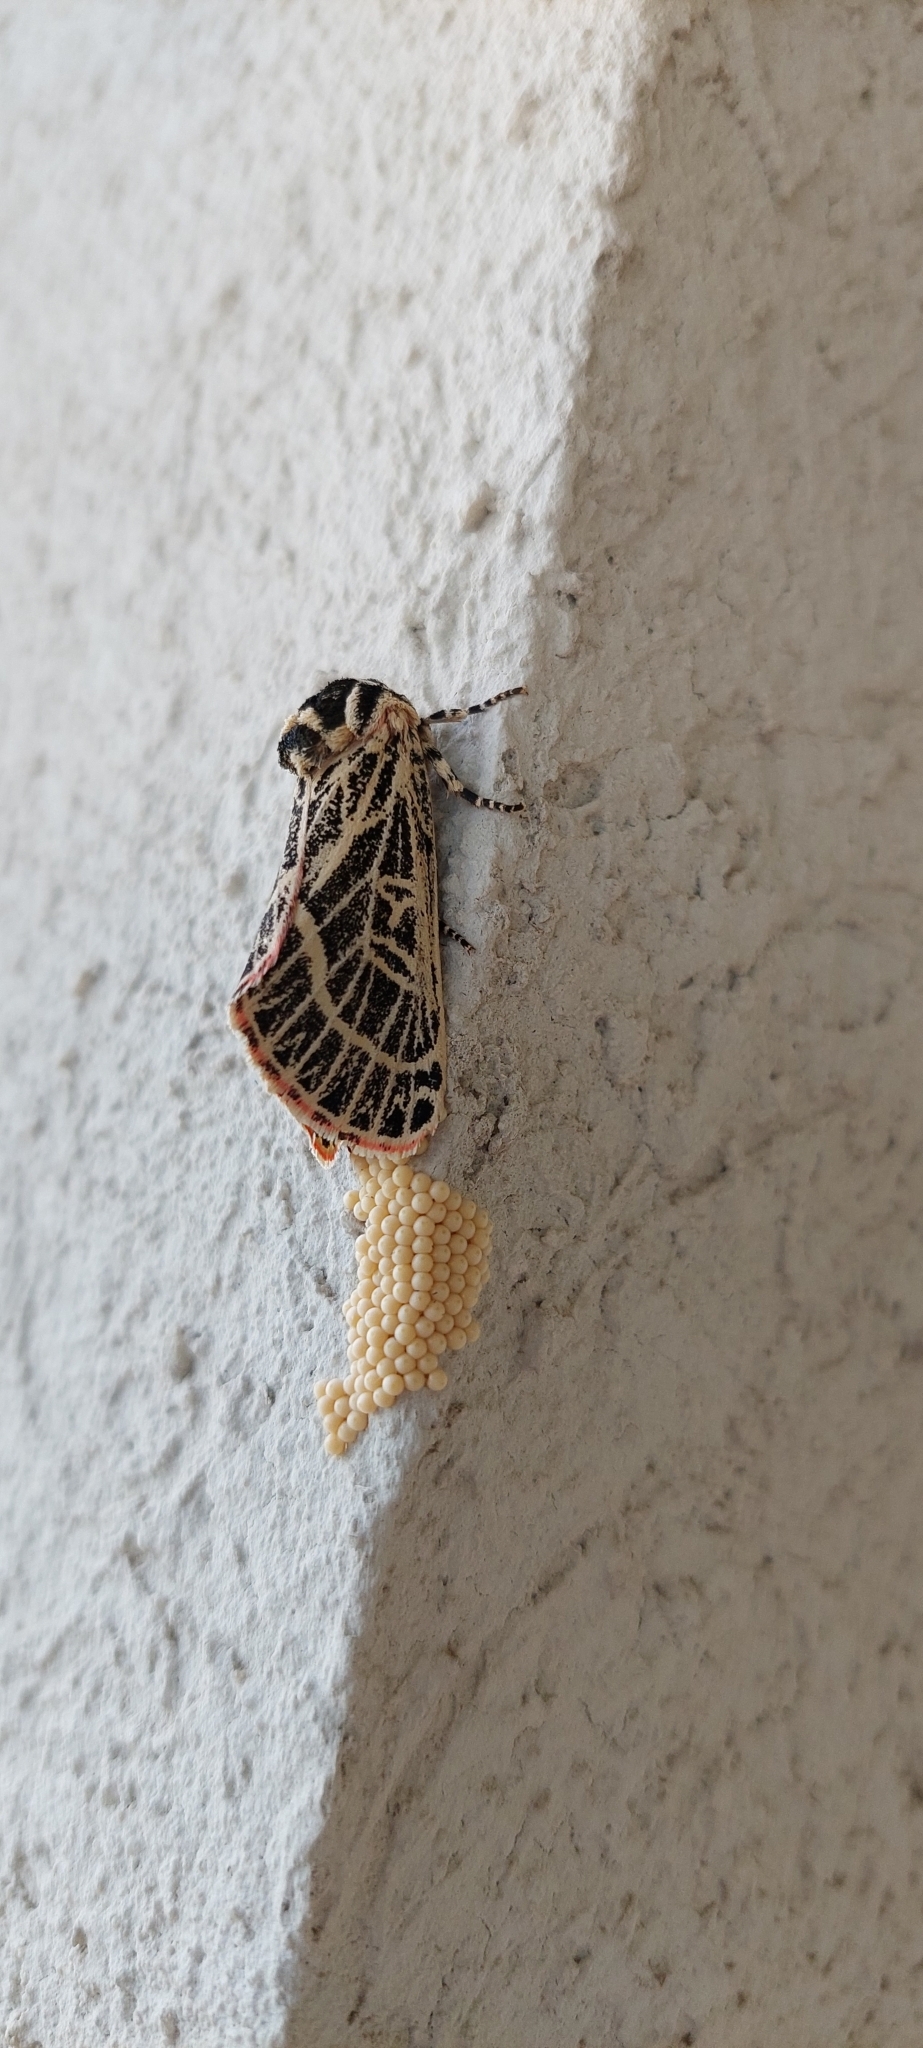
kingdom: Animalia
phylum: Arthropoda
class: Insecta
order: Lepidoptera
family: Noctuidae
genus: Chlanidophora
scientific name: Chlanidophora
